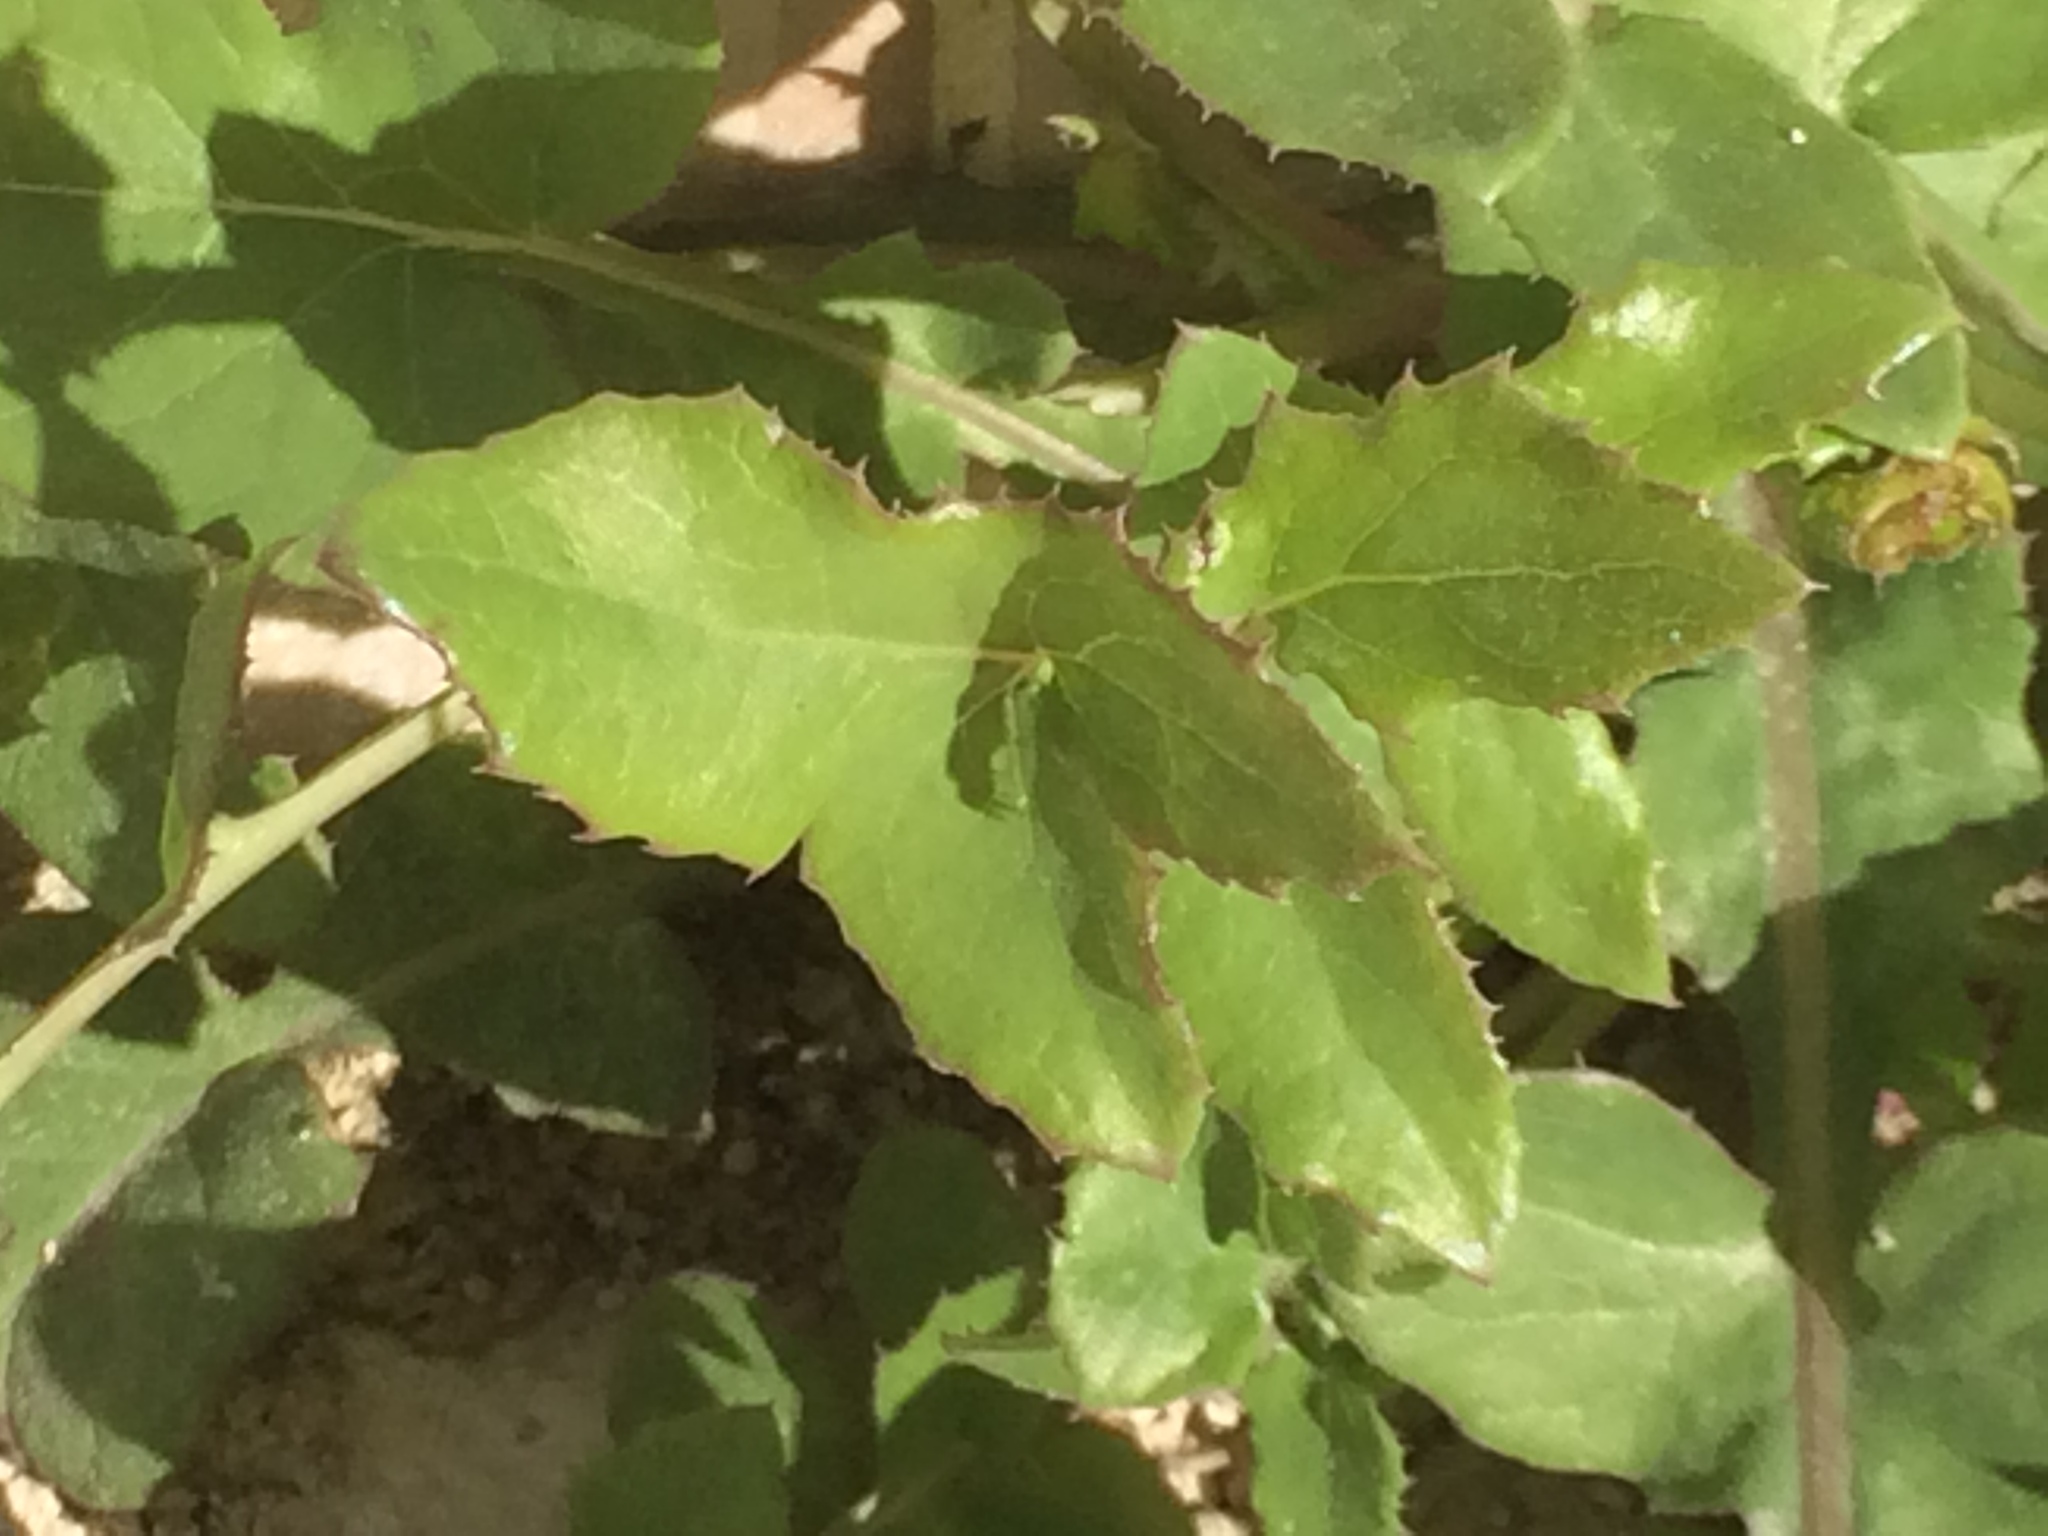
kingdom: Plantae
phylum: Tracheophyta
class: Magnoliopsida
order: Asterales
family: Asteraceae
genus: Sonchus
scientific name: Sonchus oleraceus
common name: Common sowthistle
